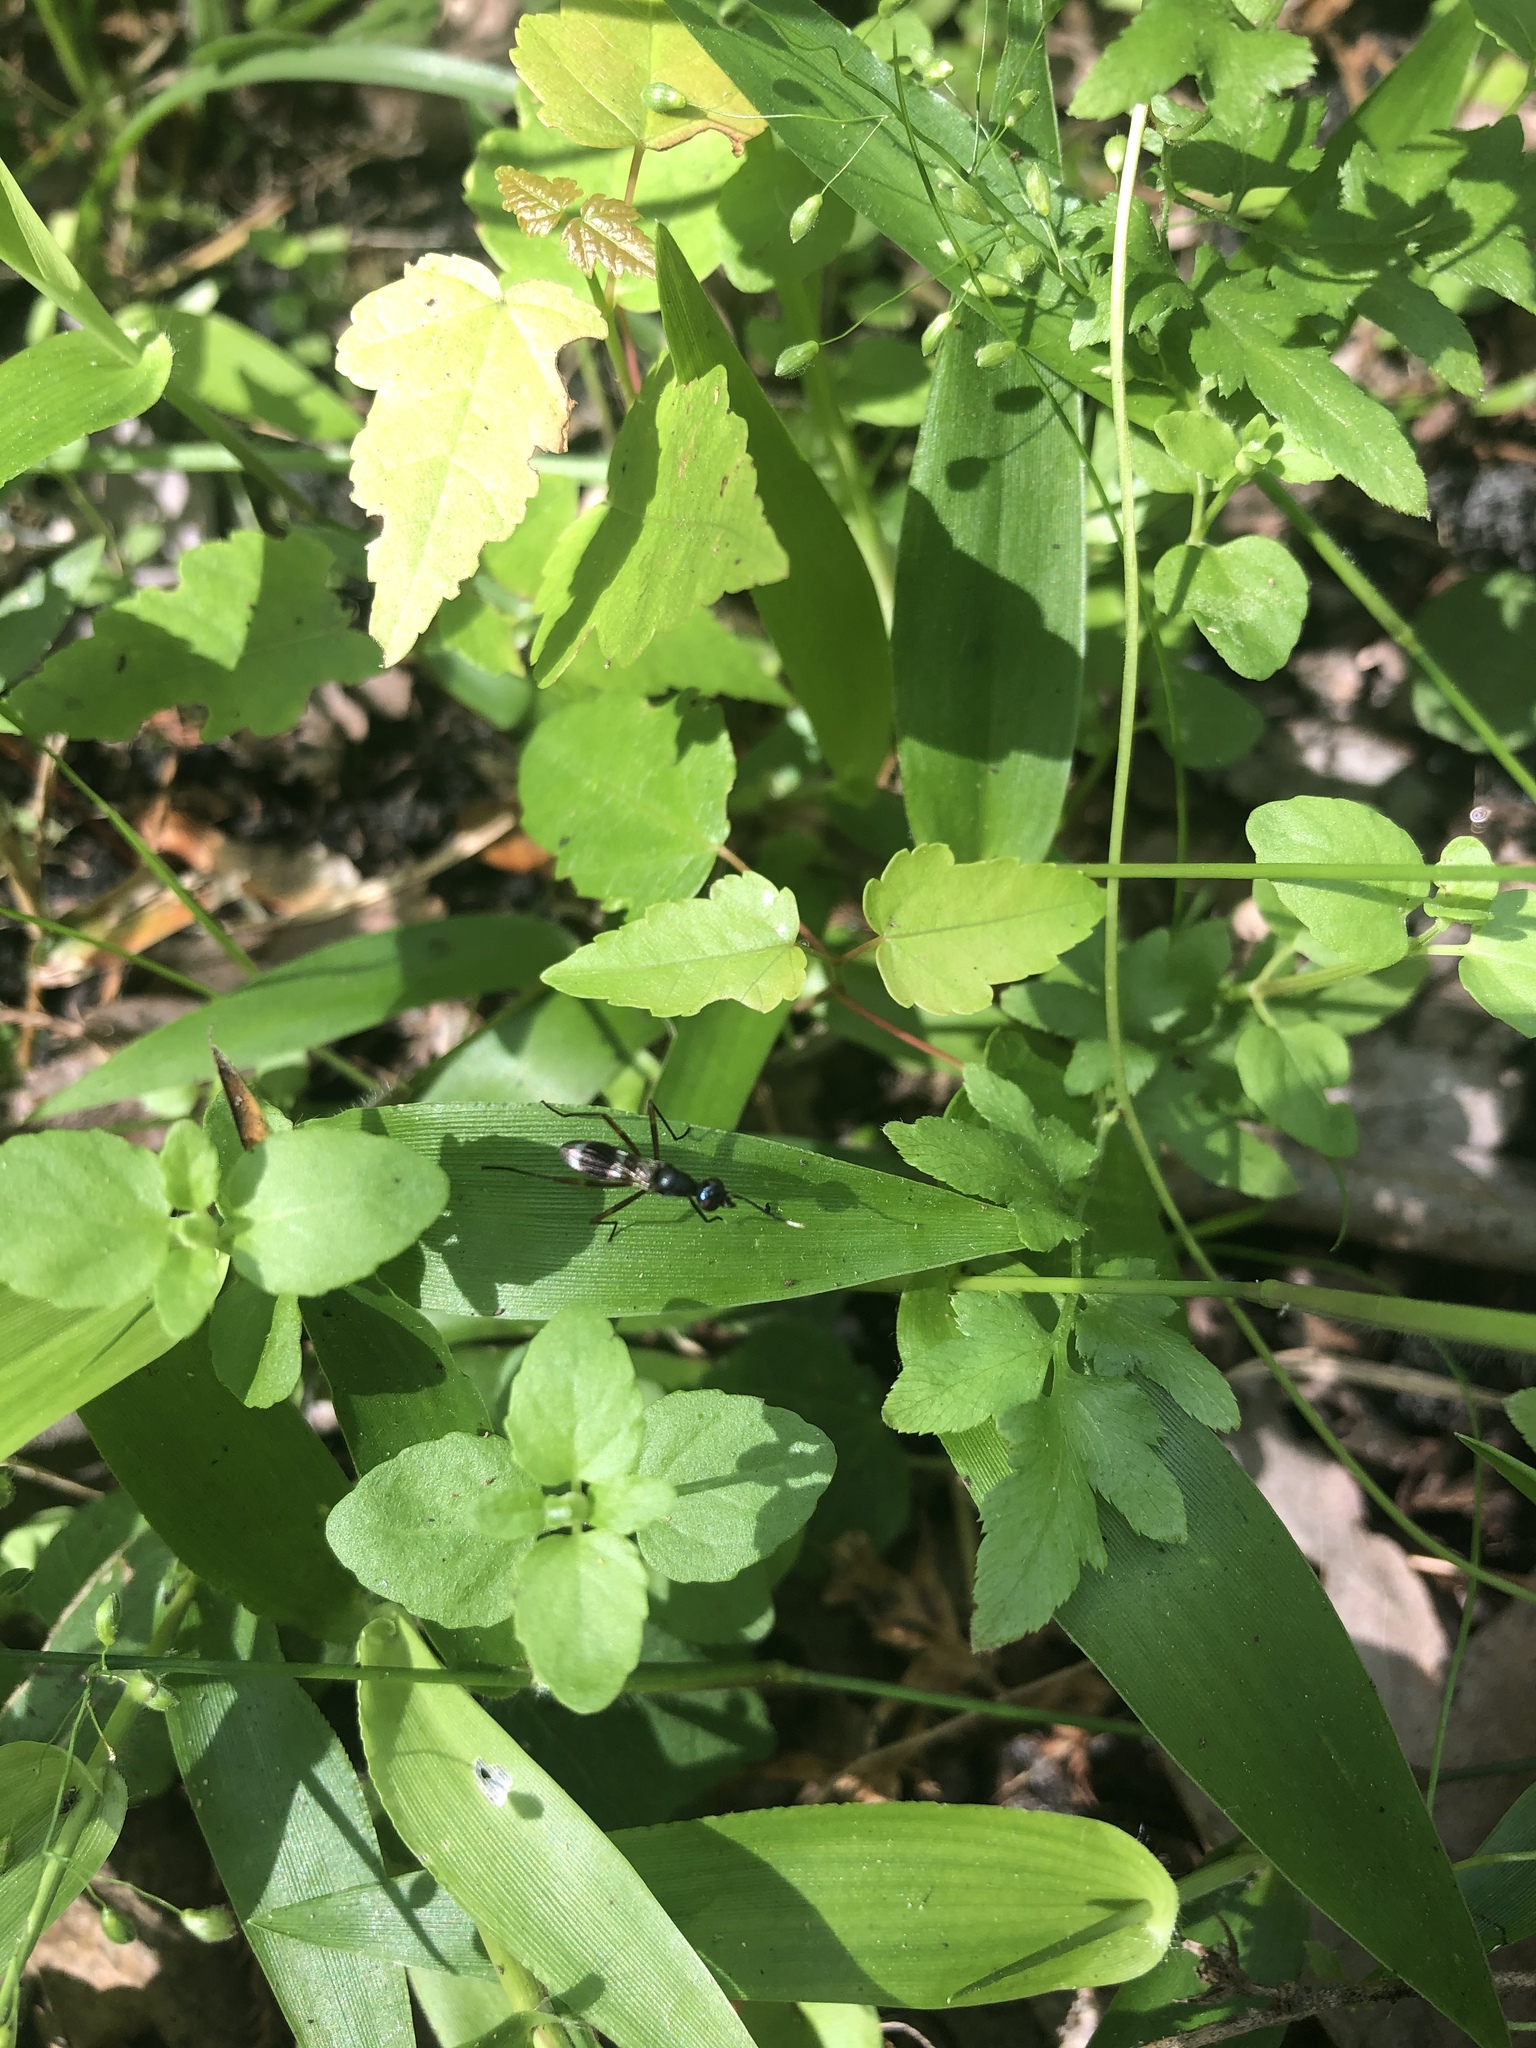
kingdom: Animalia
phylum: Arthropoda
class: Insecta
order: Diptera
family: Micropezidae
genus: Taeniaptera
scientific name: Taeniaptera trivittata
